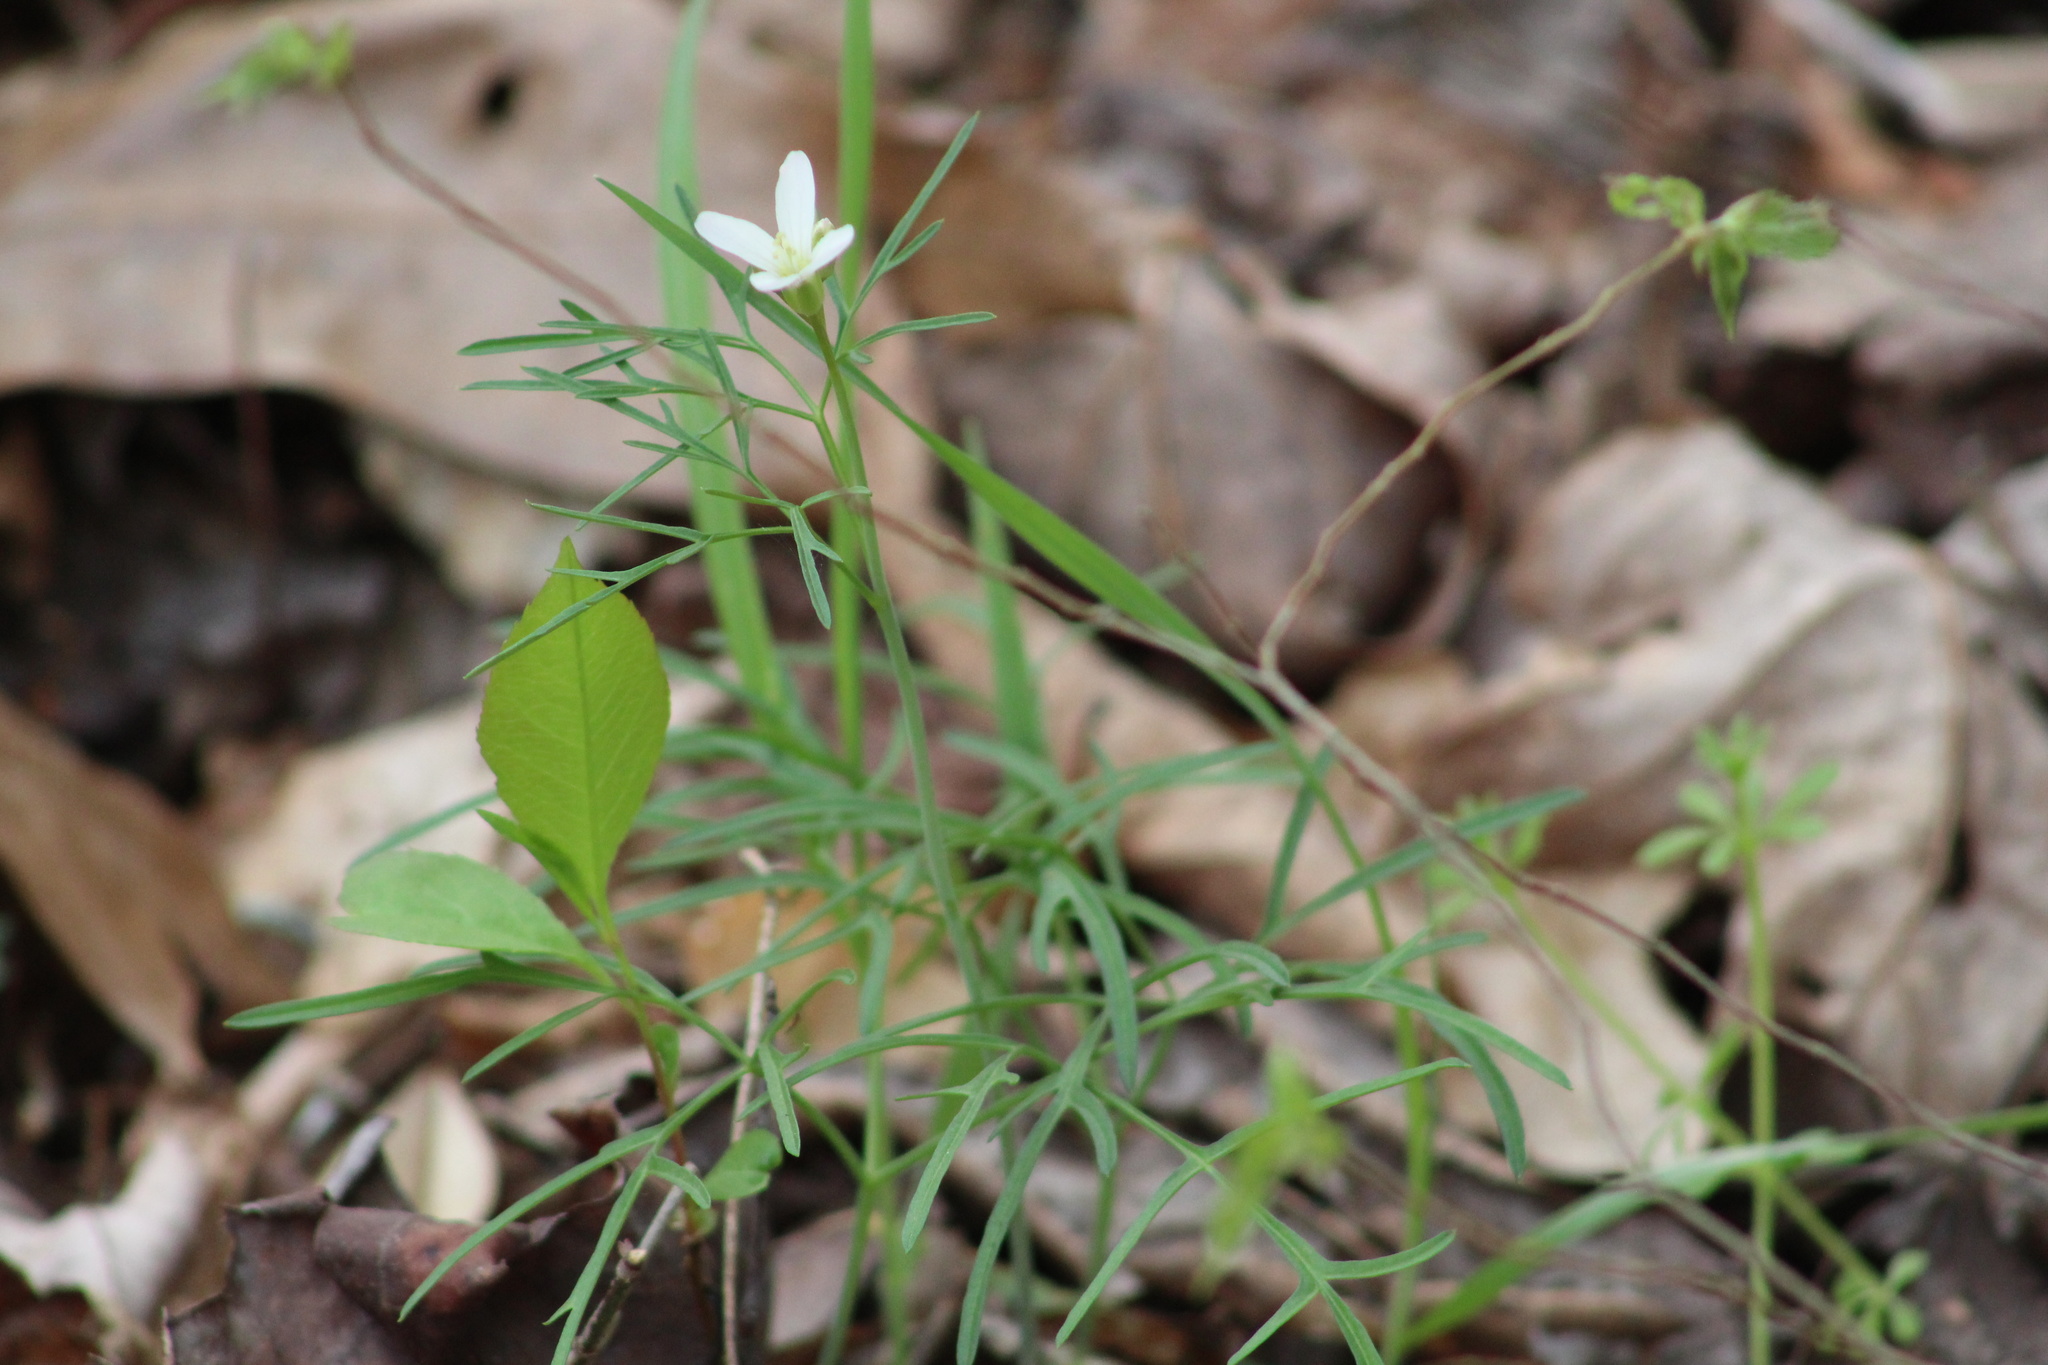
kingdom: Plantae
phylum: Tracheophyta
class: Magnoliopsida
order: Brassicales
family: Brassicaceae
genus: Cardamine
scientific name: Cardamine dissecta
